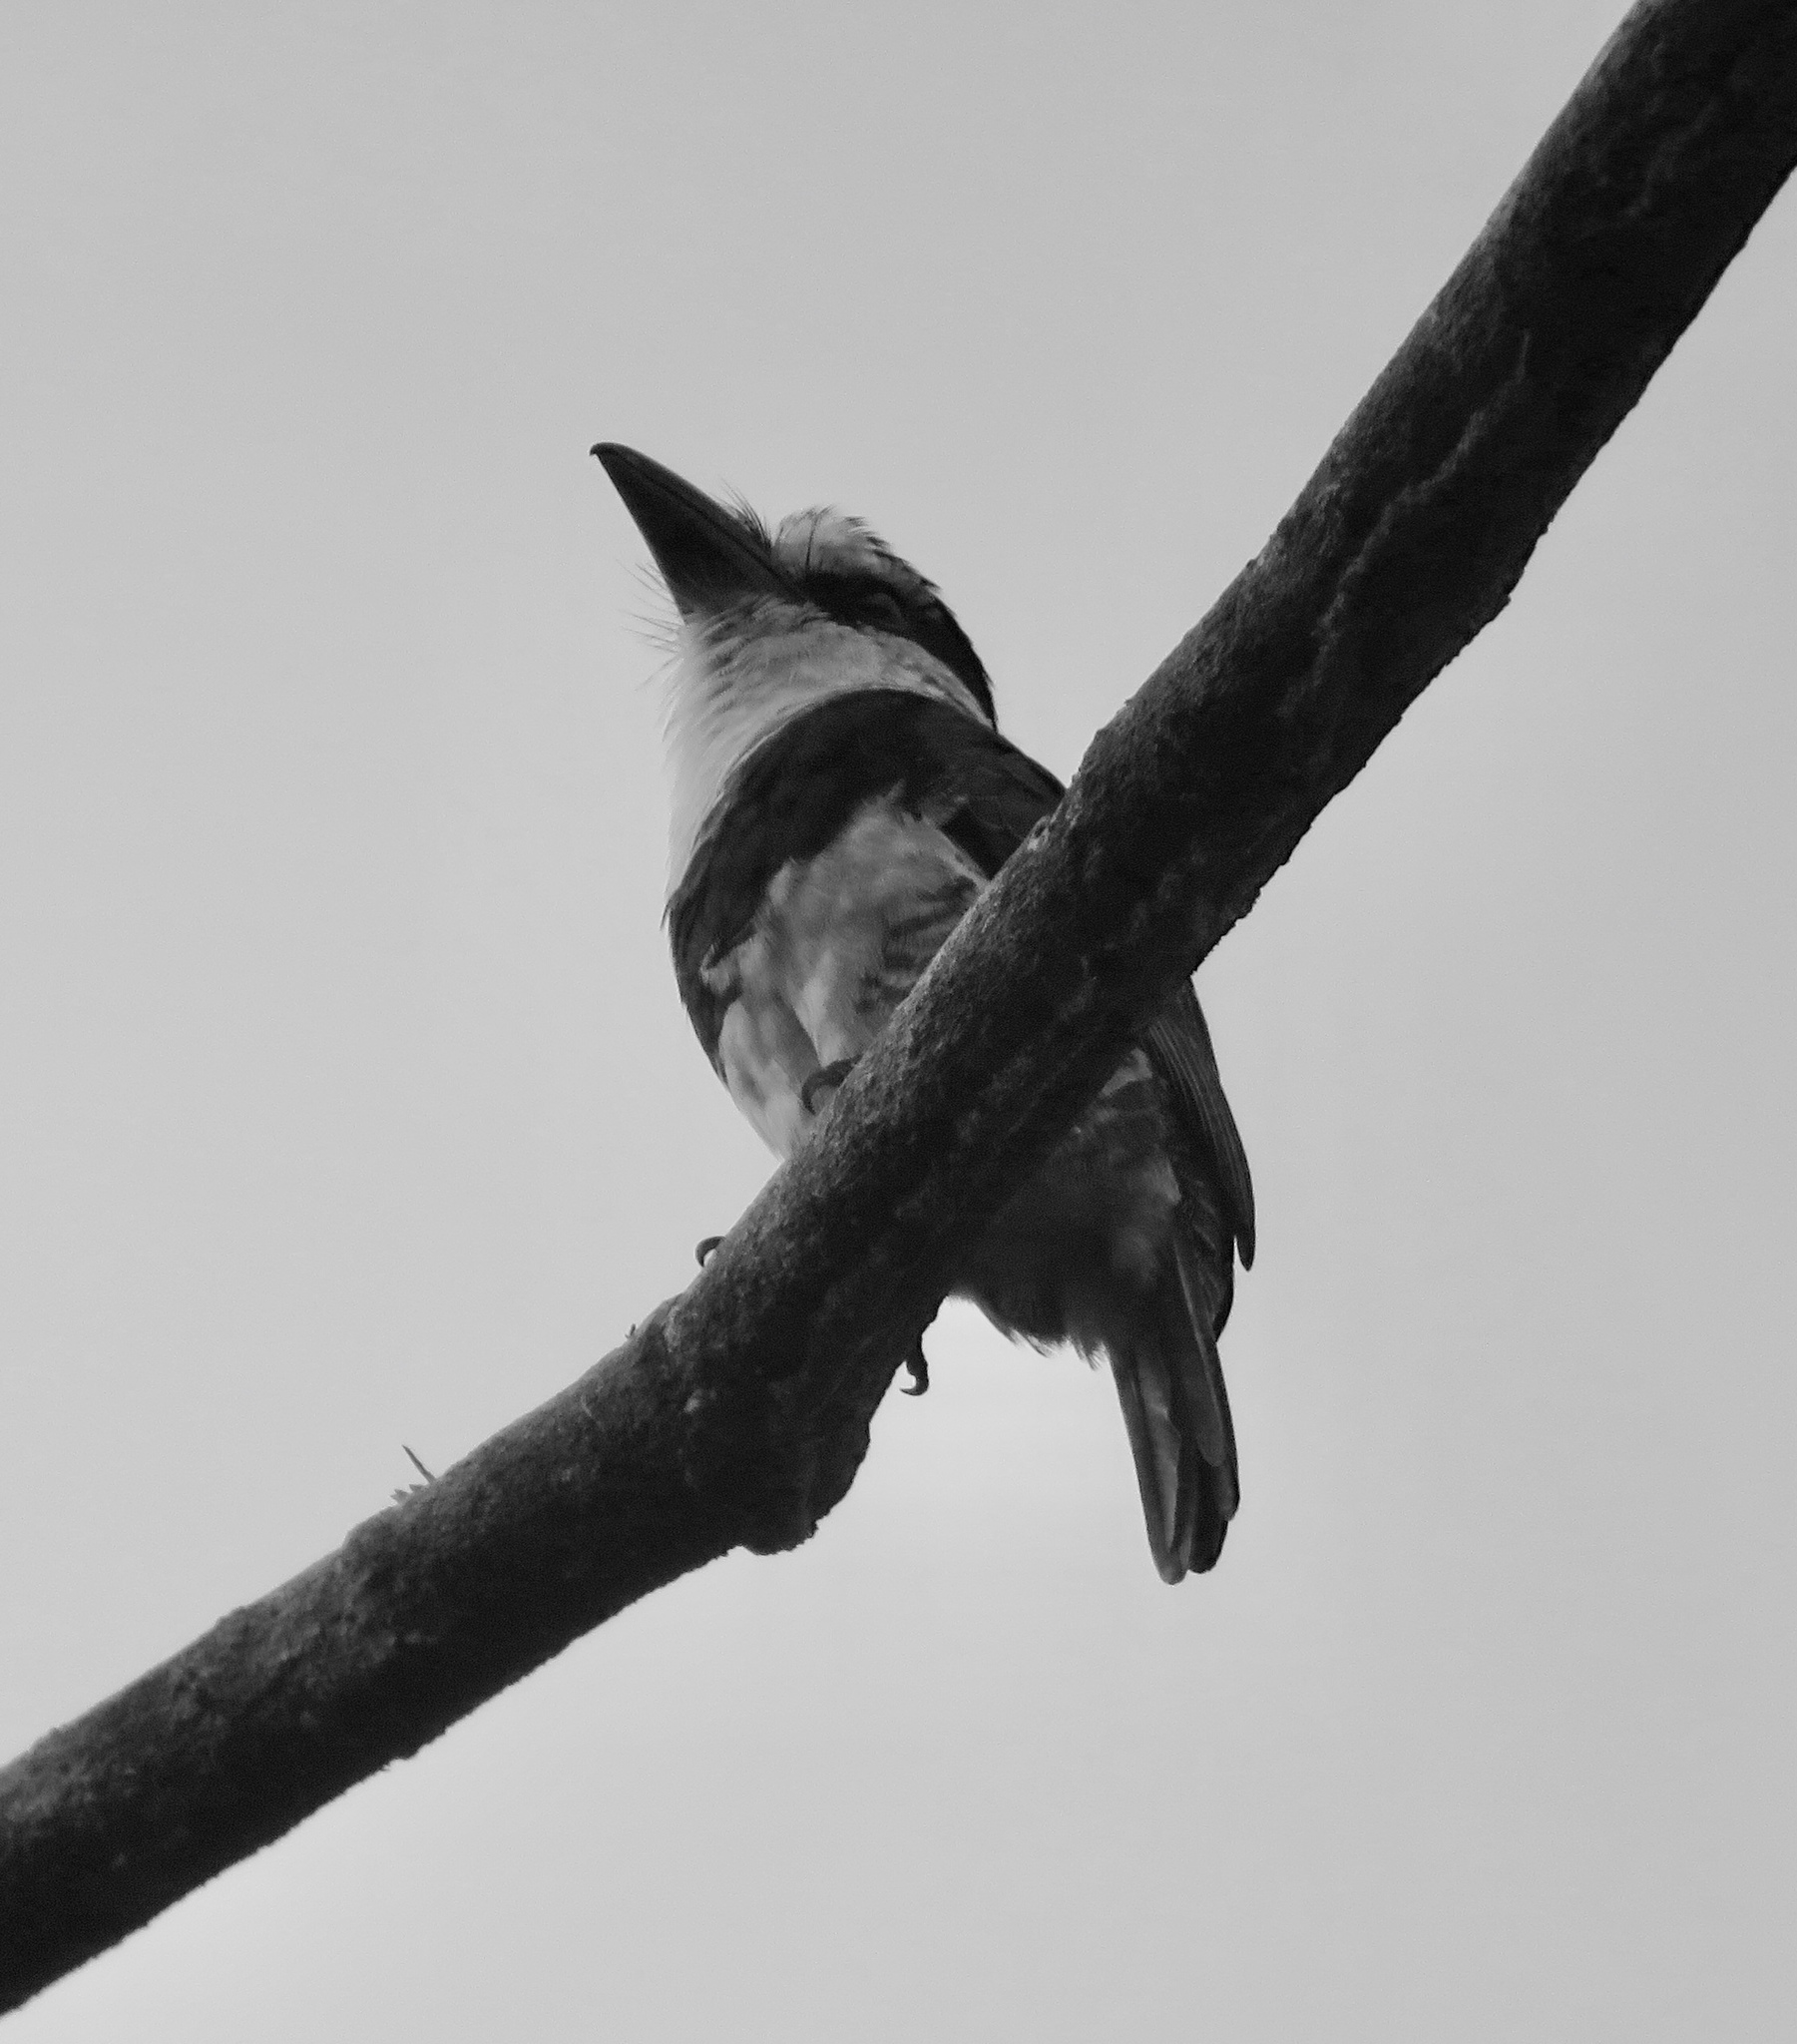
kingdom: Animalia
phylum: Chordata
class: Aves
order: Piciformes
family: Bucconidae
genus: Notharchus
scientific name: Notharchus hyperrhynchus
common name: White-necked puffbird
